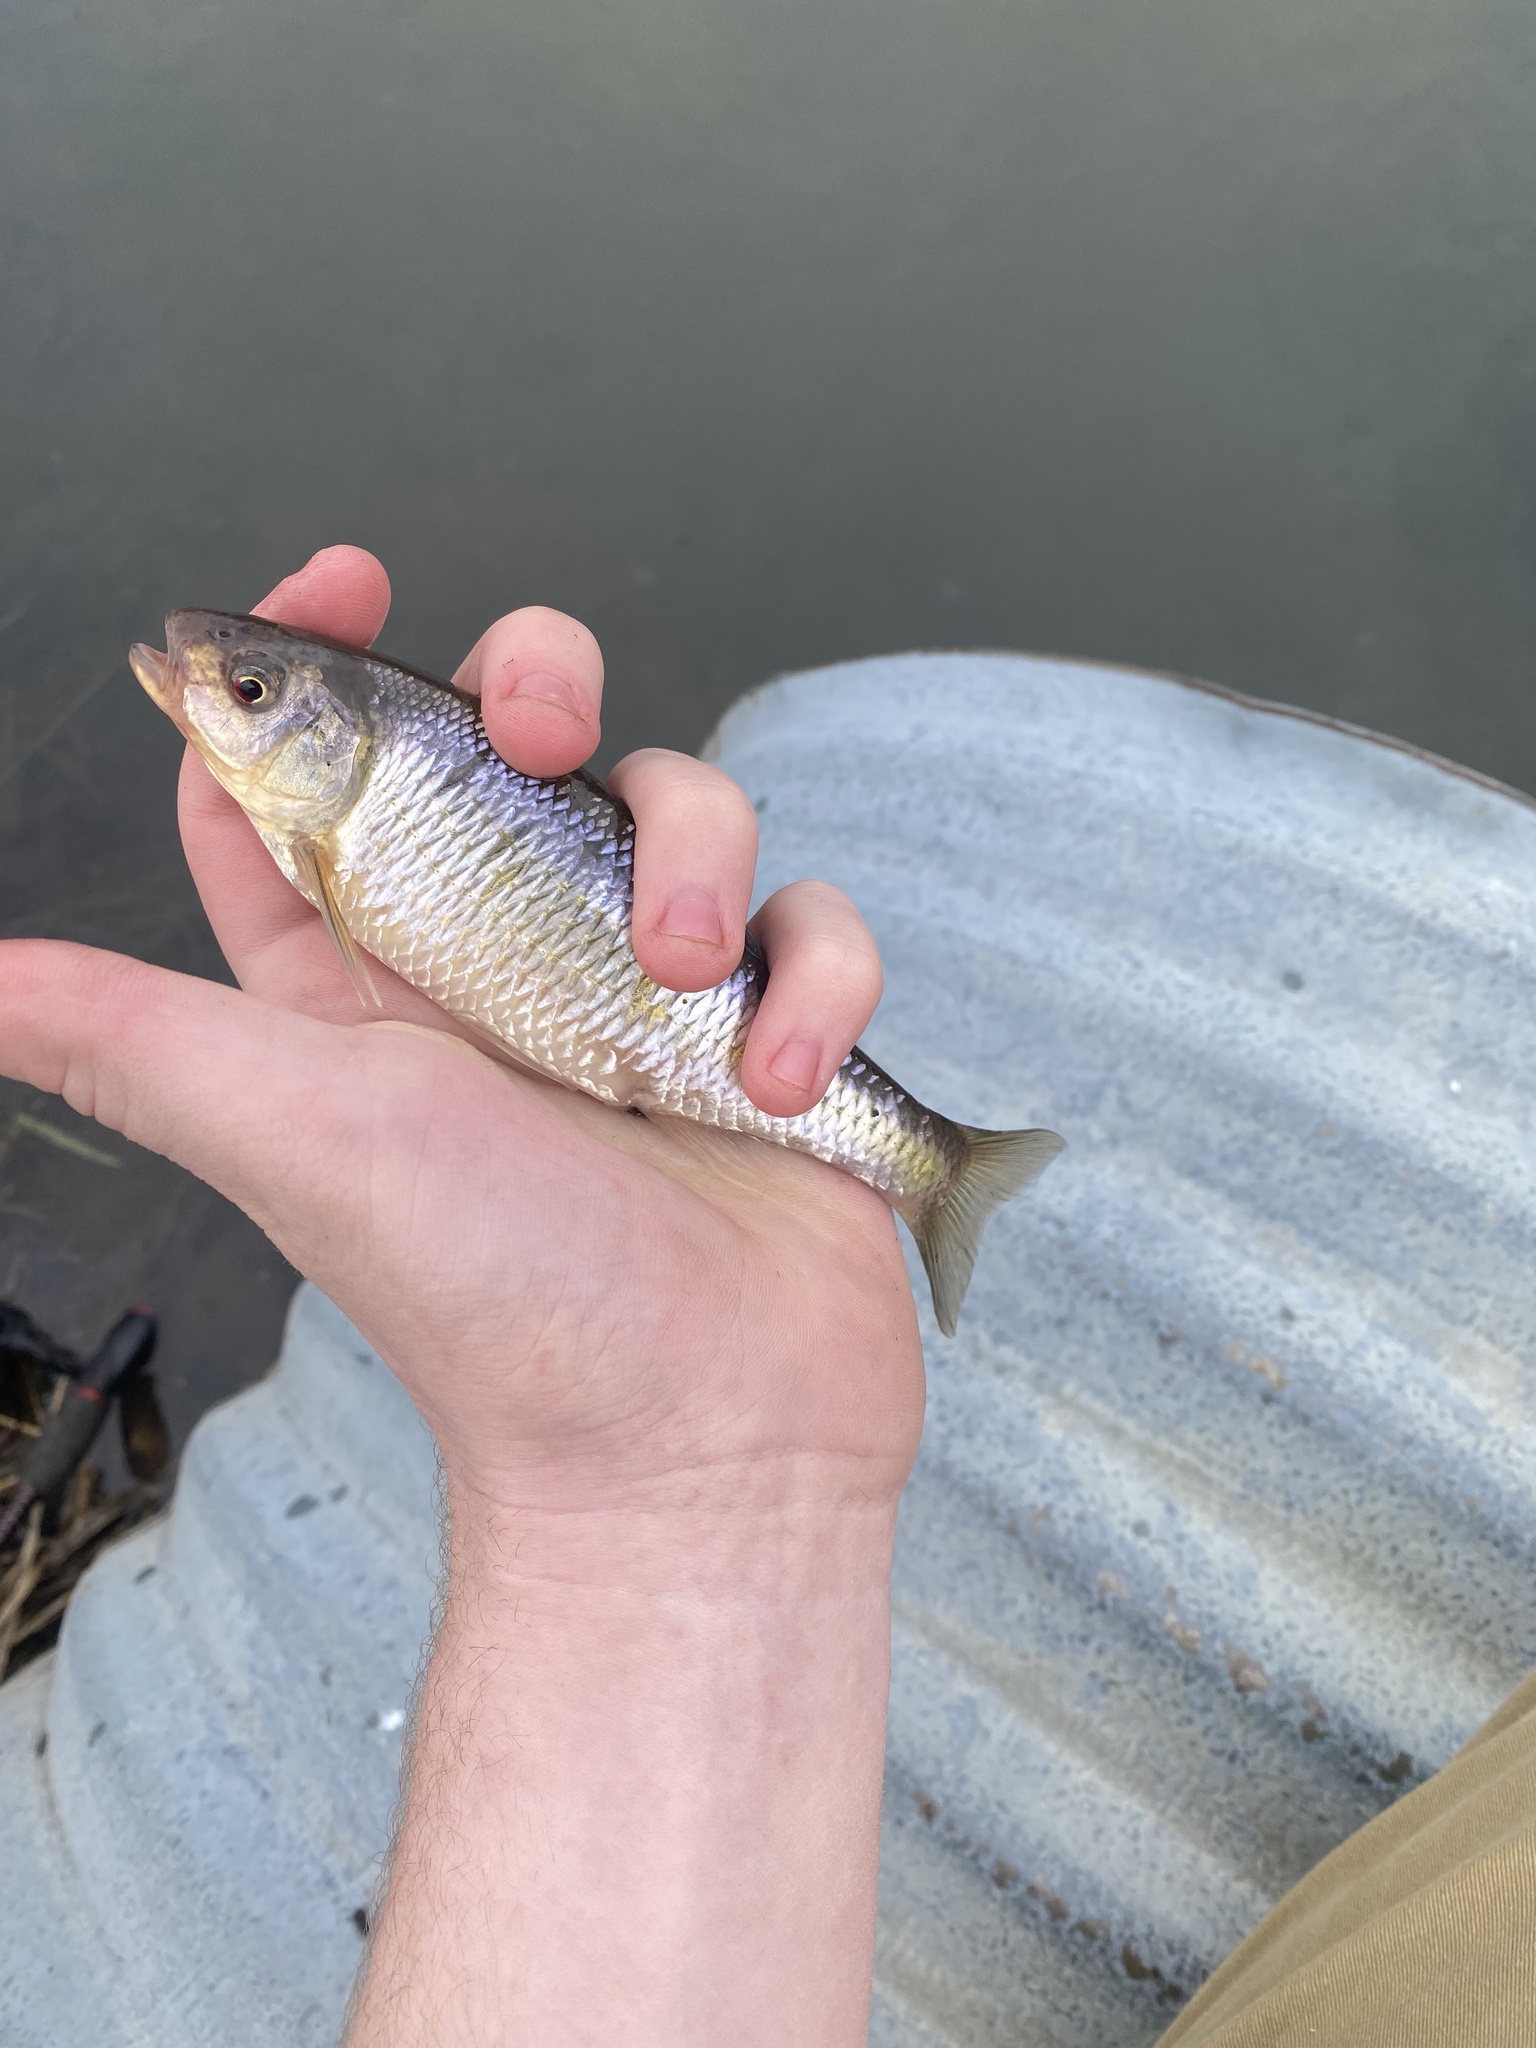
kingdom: Animalia
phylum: Chordata
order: Cypriniformes
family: Cyprinidae
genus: Luxilus
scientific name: Luxilus cornutus
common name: Common shiner
